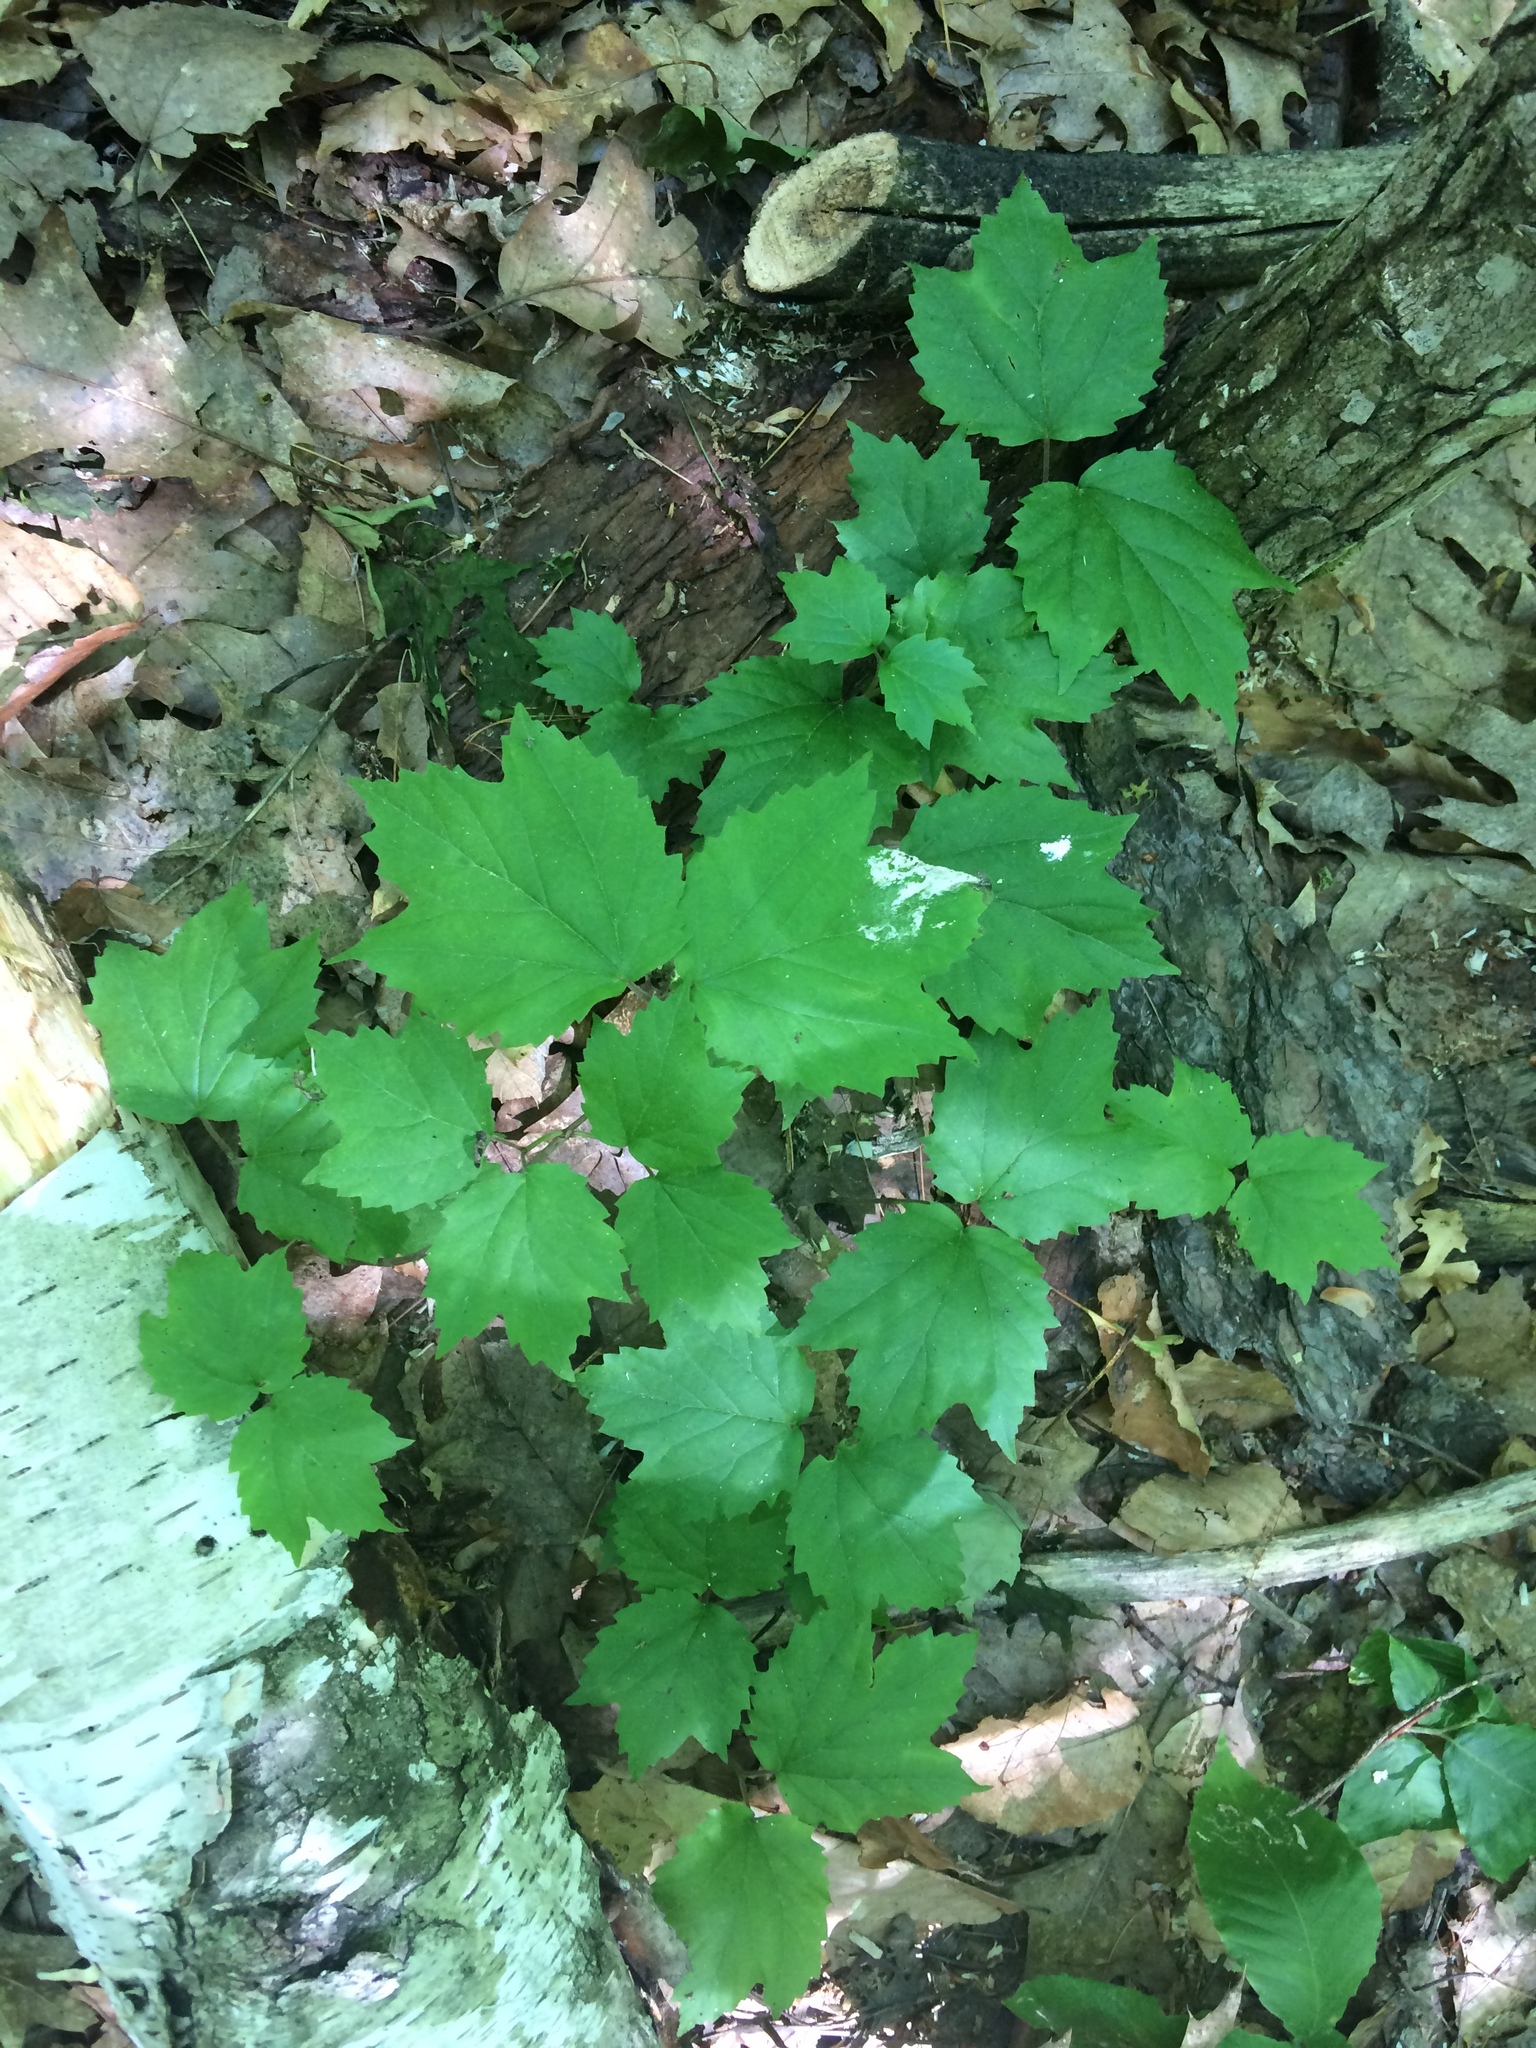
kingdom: Plantae
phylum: Tracheophyta
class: Magnoliopsida
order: Dipsacales
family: Viburnaceae
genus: Viburnum
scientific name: Viburnum acerifolium
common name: Dockmackie
